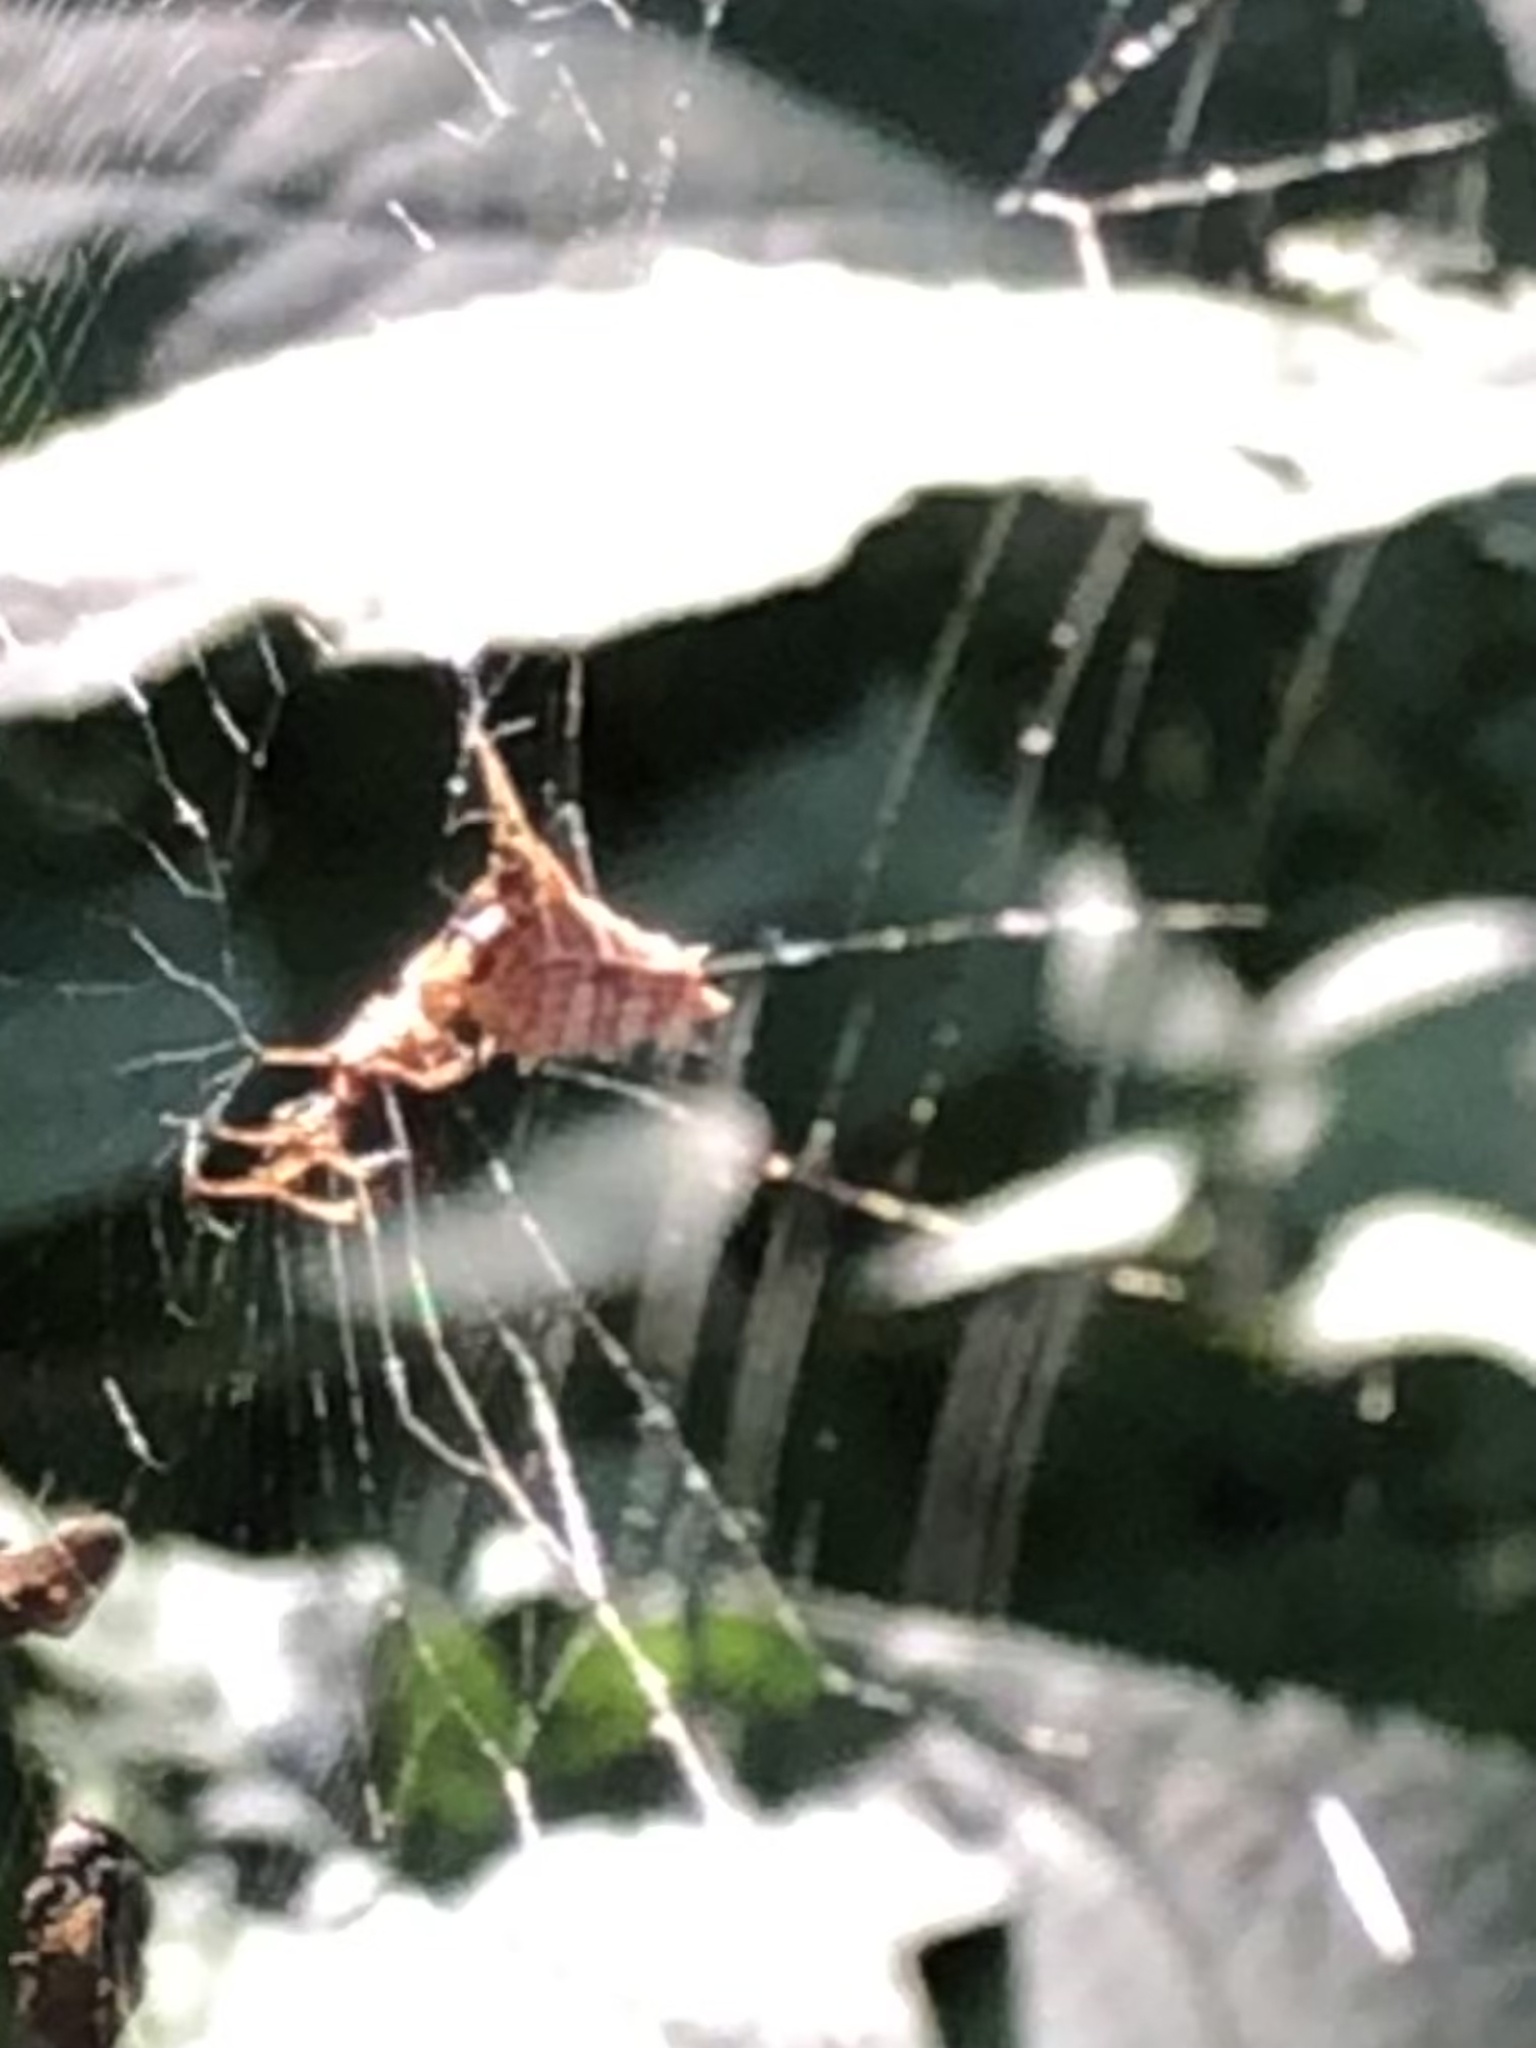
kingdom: Animalia
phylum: Arthropoda
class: Arachnida
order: Araneae
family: Araneidae
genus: Micrathena
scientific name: Micrathena gracilis
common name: Orb weavers
